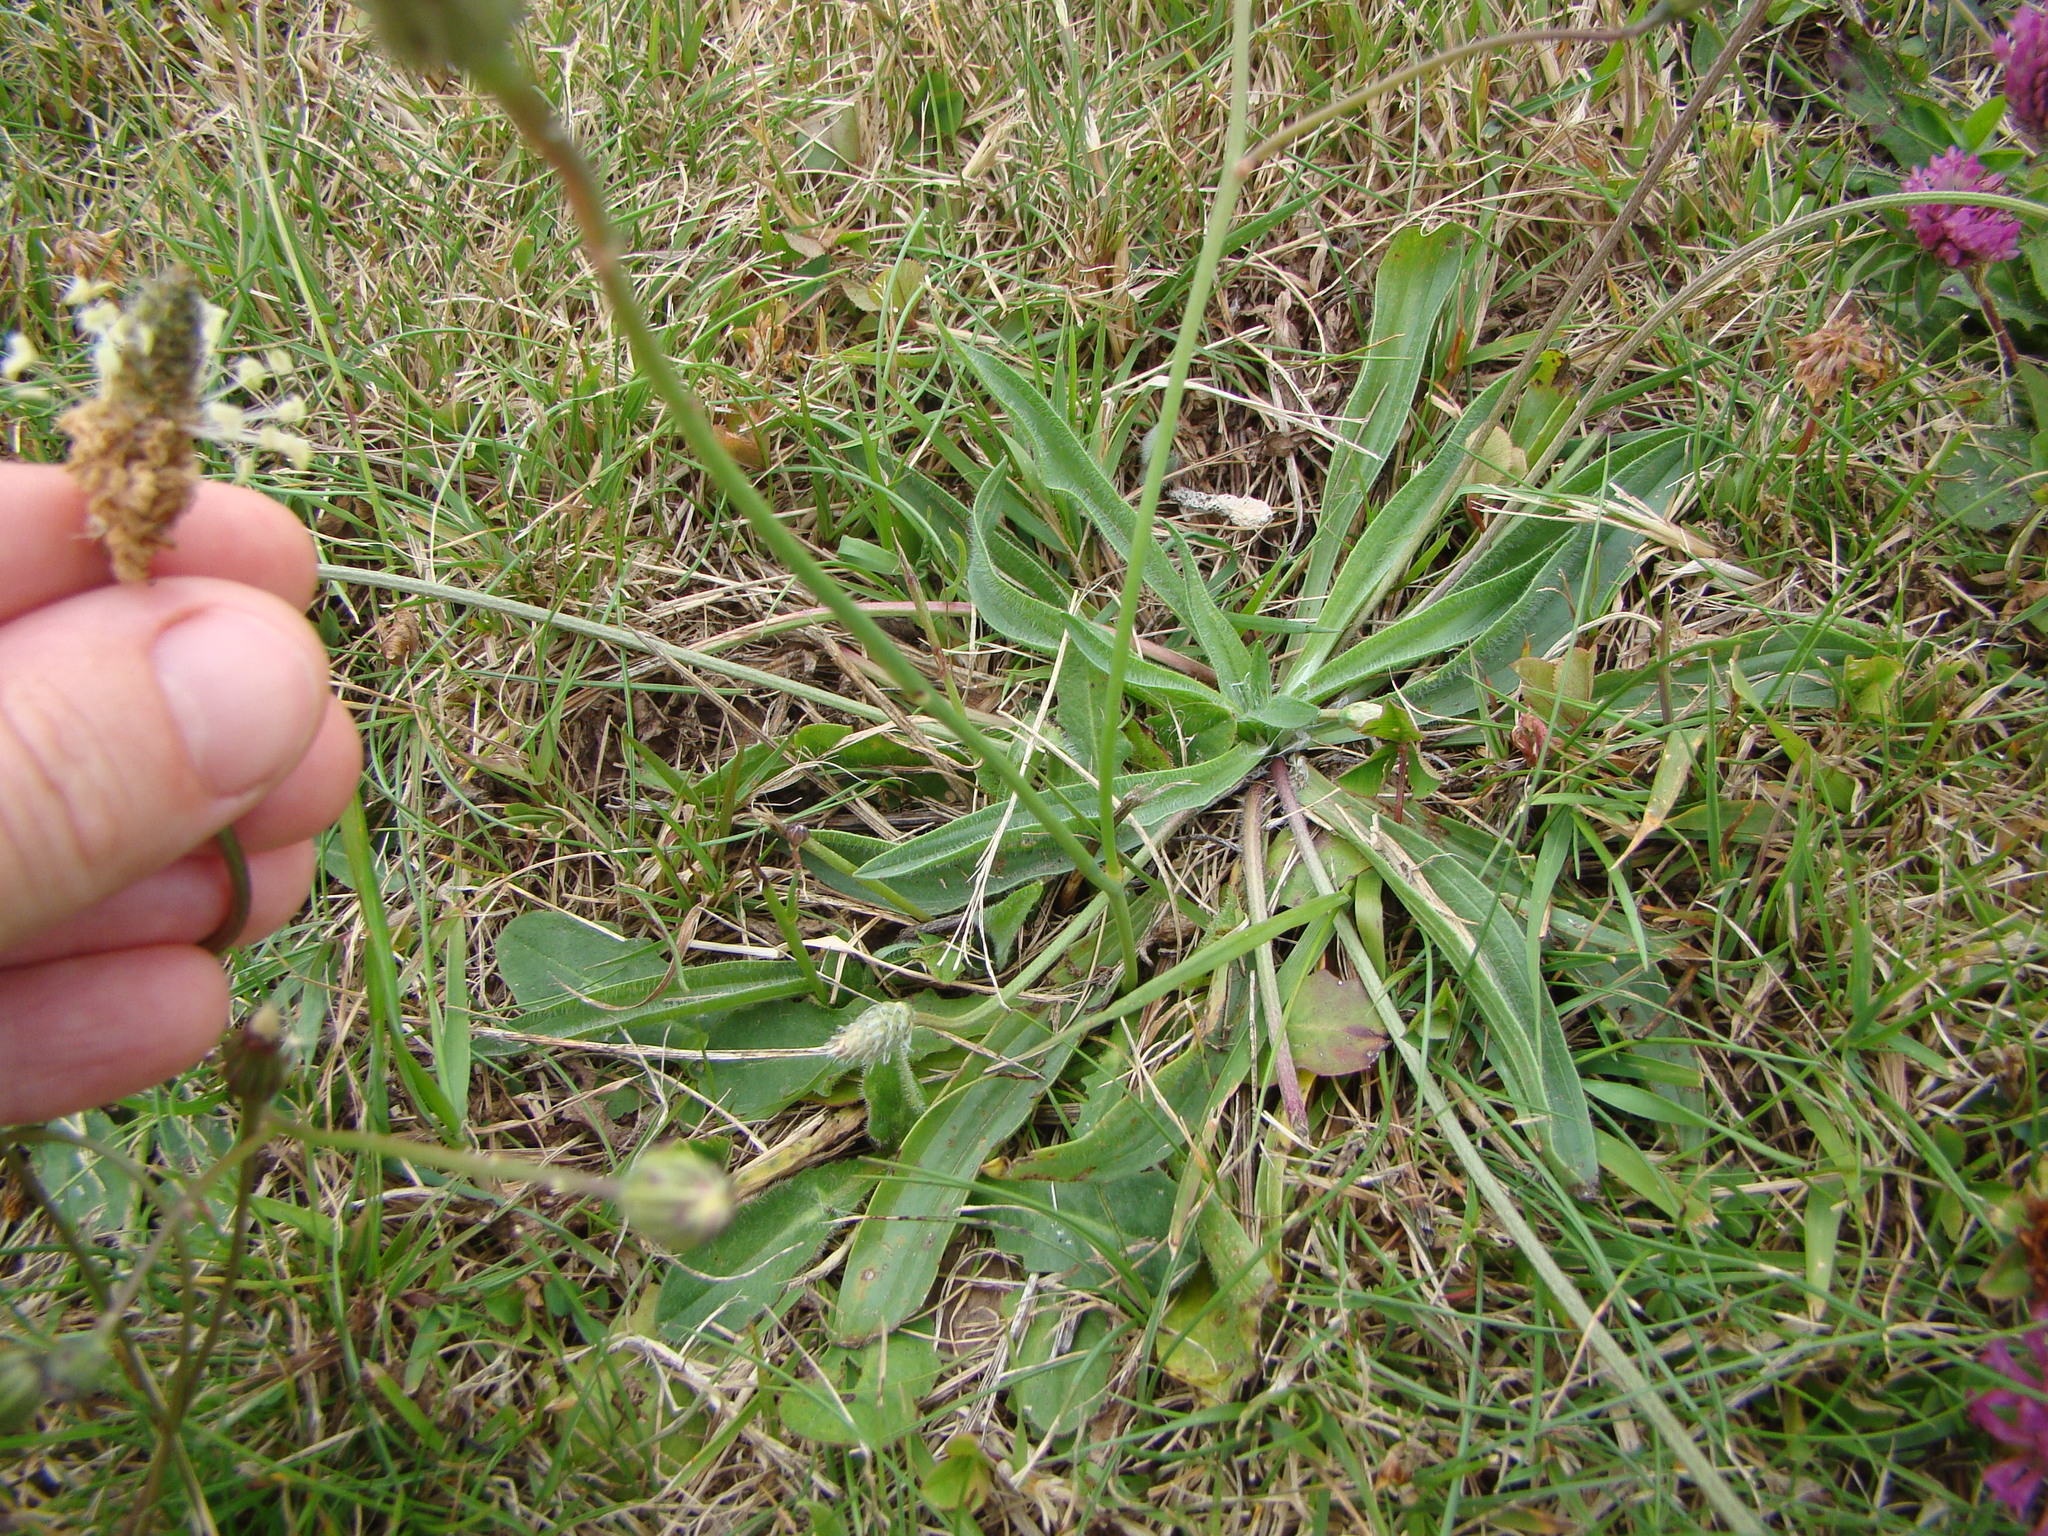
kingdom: Plantae
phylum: Tracheophyta
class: Magnoliopsida
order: Lamiales
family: Plantaginaceae
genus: Plantago
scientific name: Plantago lanceolata
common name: Ribwort plantain
